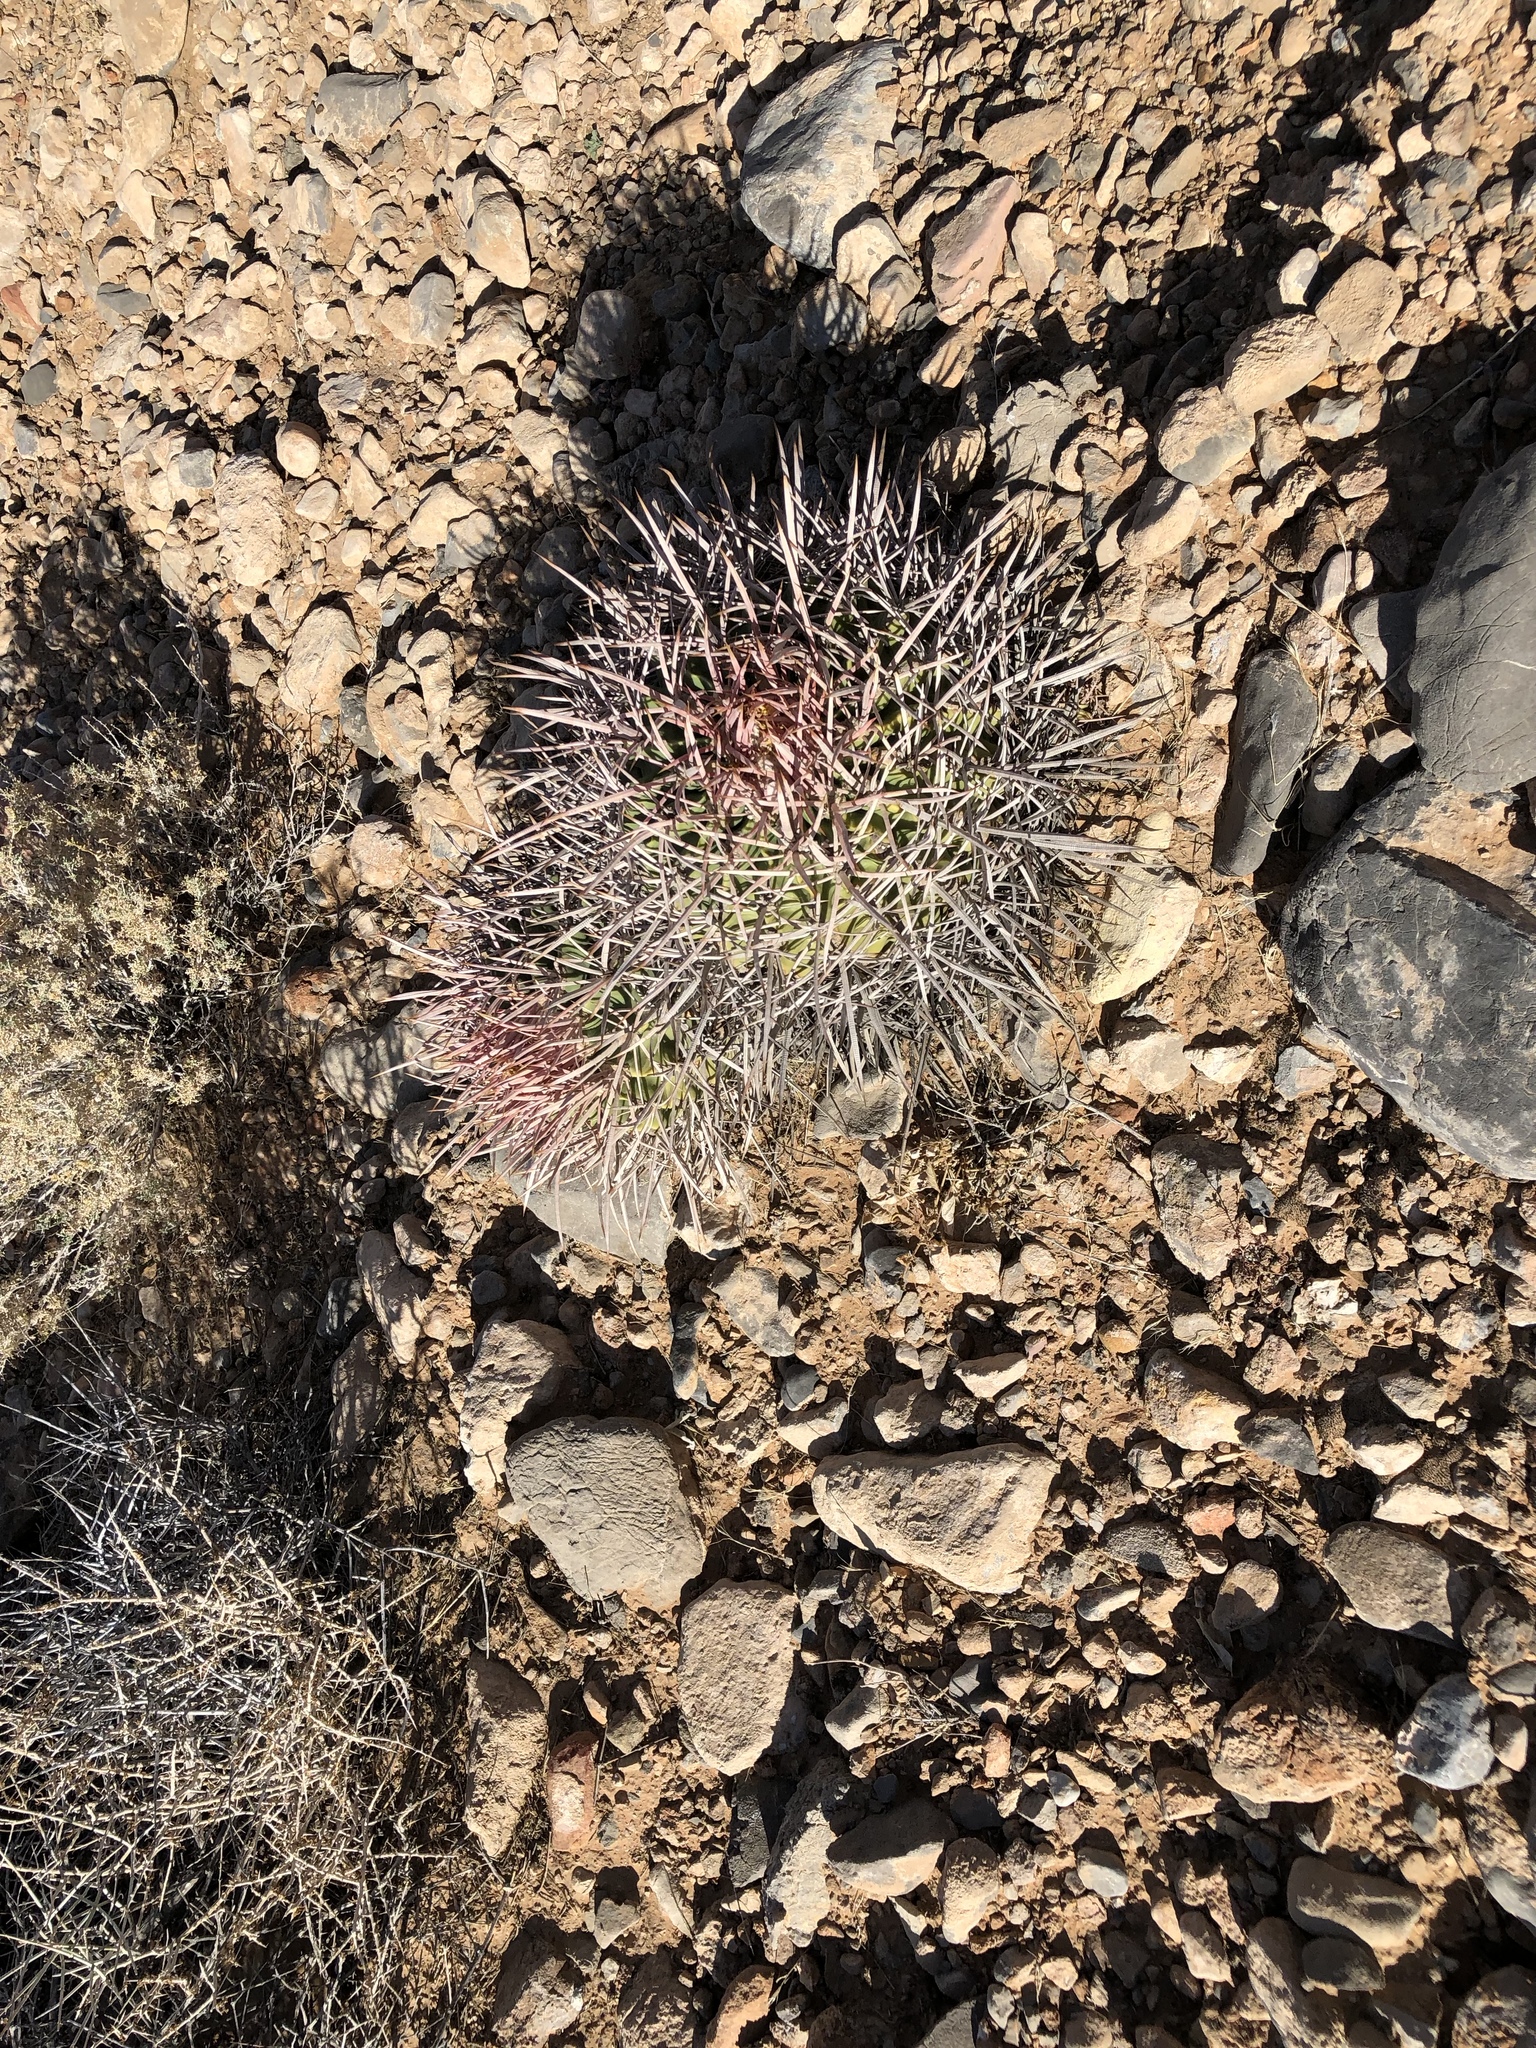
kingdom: Plantae
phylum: Tracheophyta
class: Magnoliopsida
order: Caryophyllales
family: Cactaceae
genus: Echinocactus
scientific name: Echinocactus polycephalus
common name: Cottontop cactus
